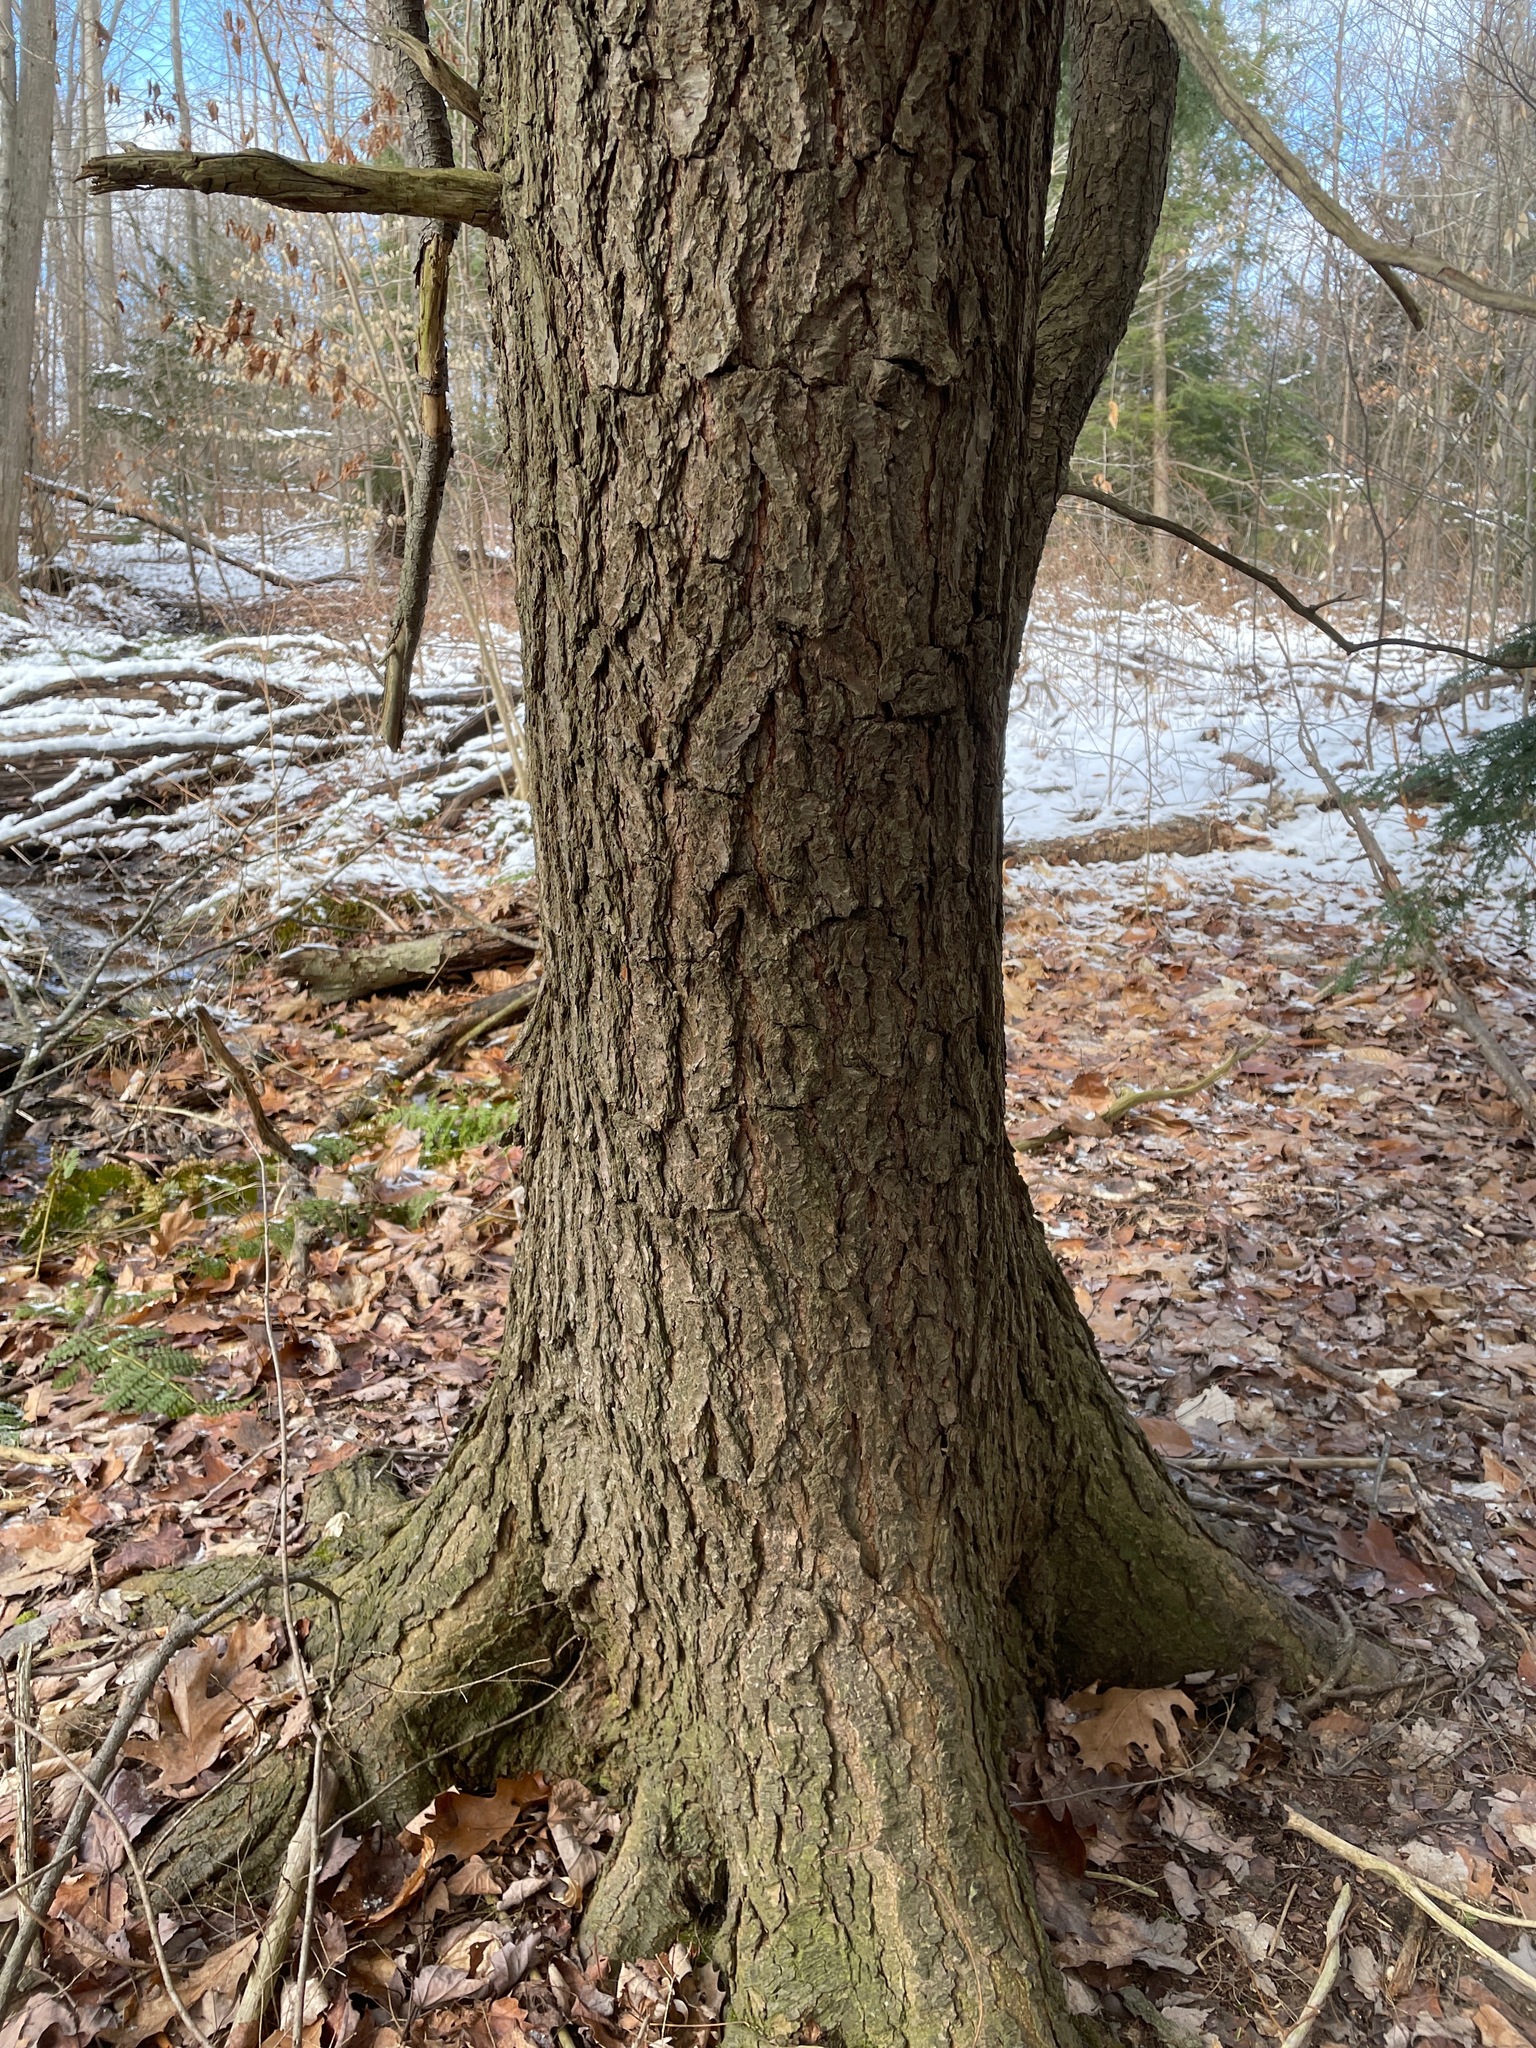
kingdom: Plantae
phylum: Tracheophyta
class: Pinopsida
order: Pinales
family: Pinaceae
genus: Tsuga
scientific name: Tsuga canadensis
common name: Eastern hemlock
